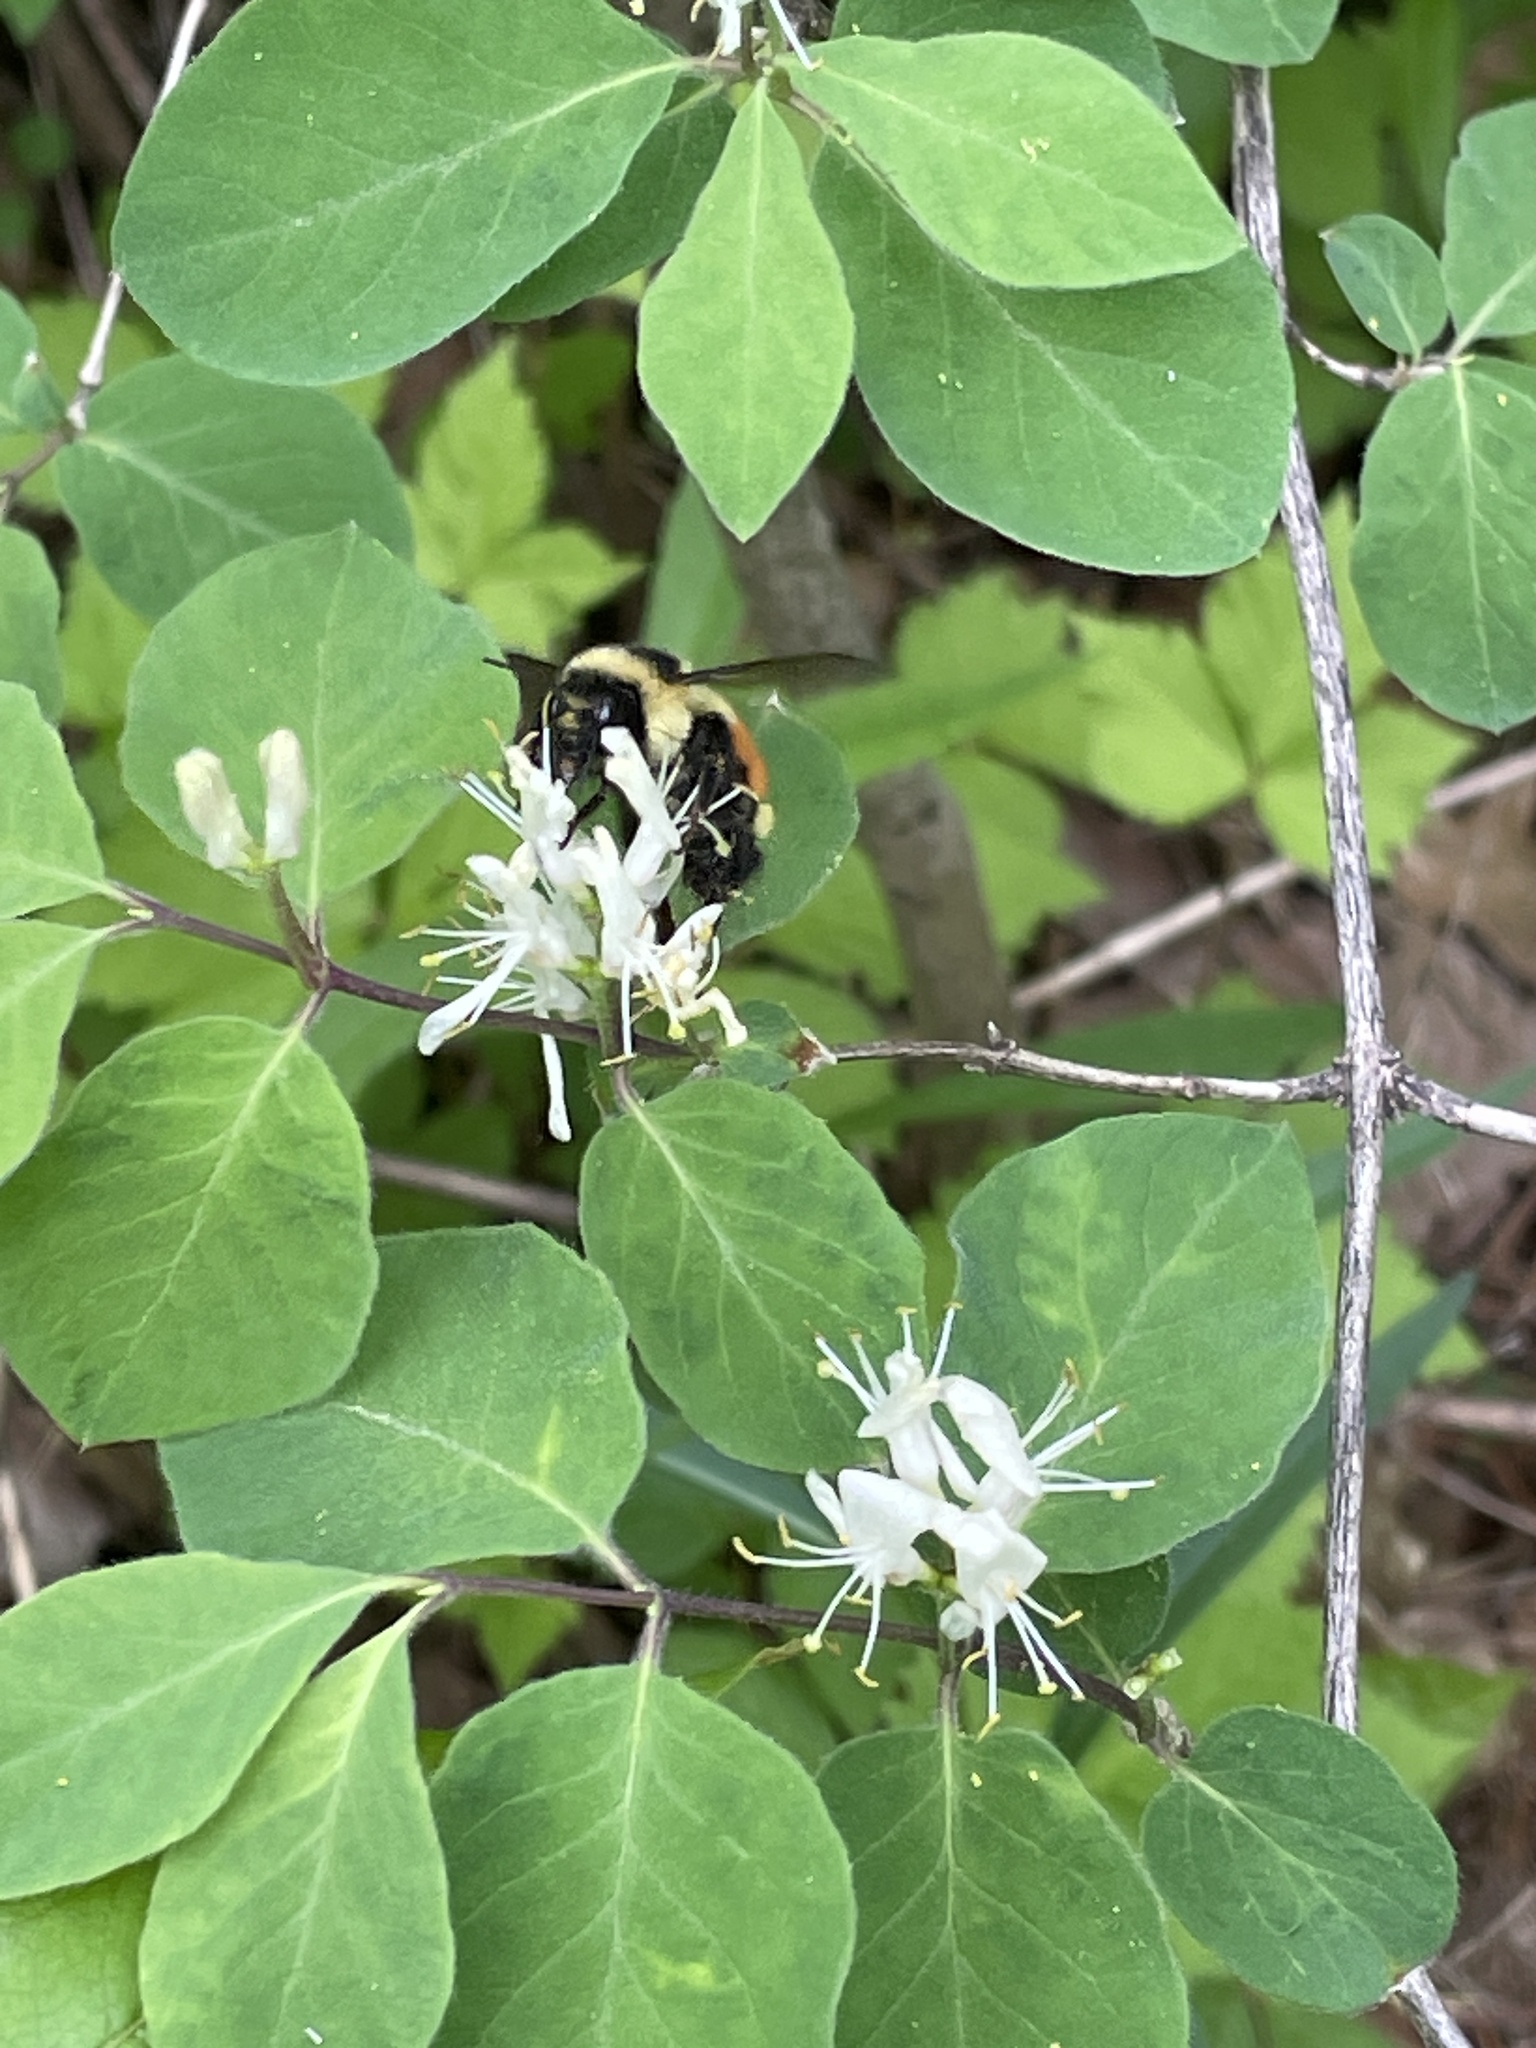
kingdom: Animalia
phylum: Arthropoda
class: Insecta
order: Hymenoptera
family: Apidae
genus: Bombus
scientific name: Bombus ternarius
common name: Tri-colored bumble bee
